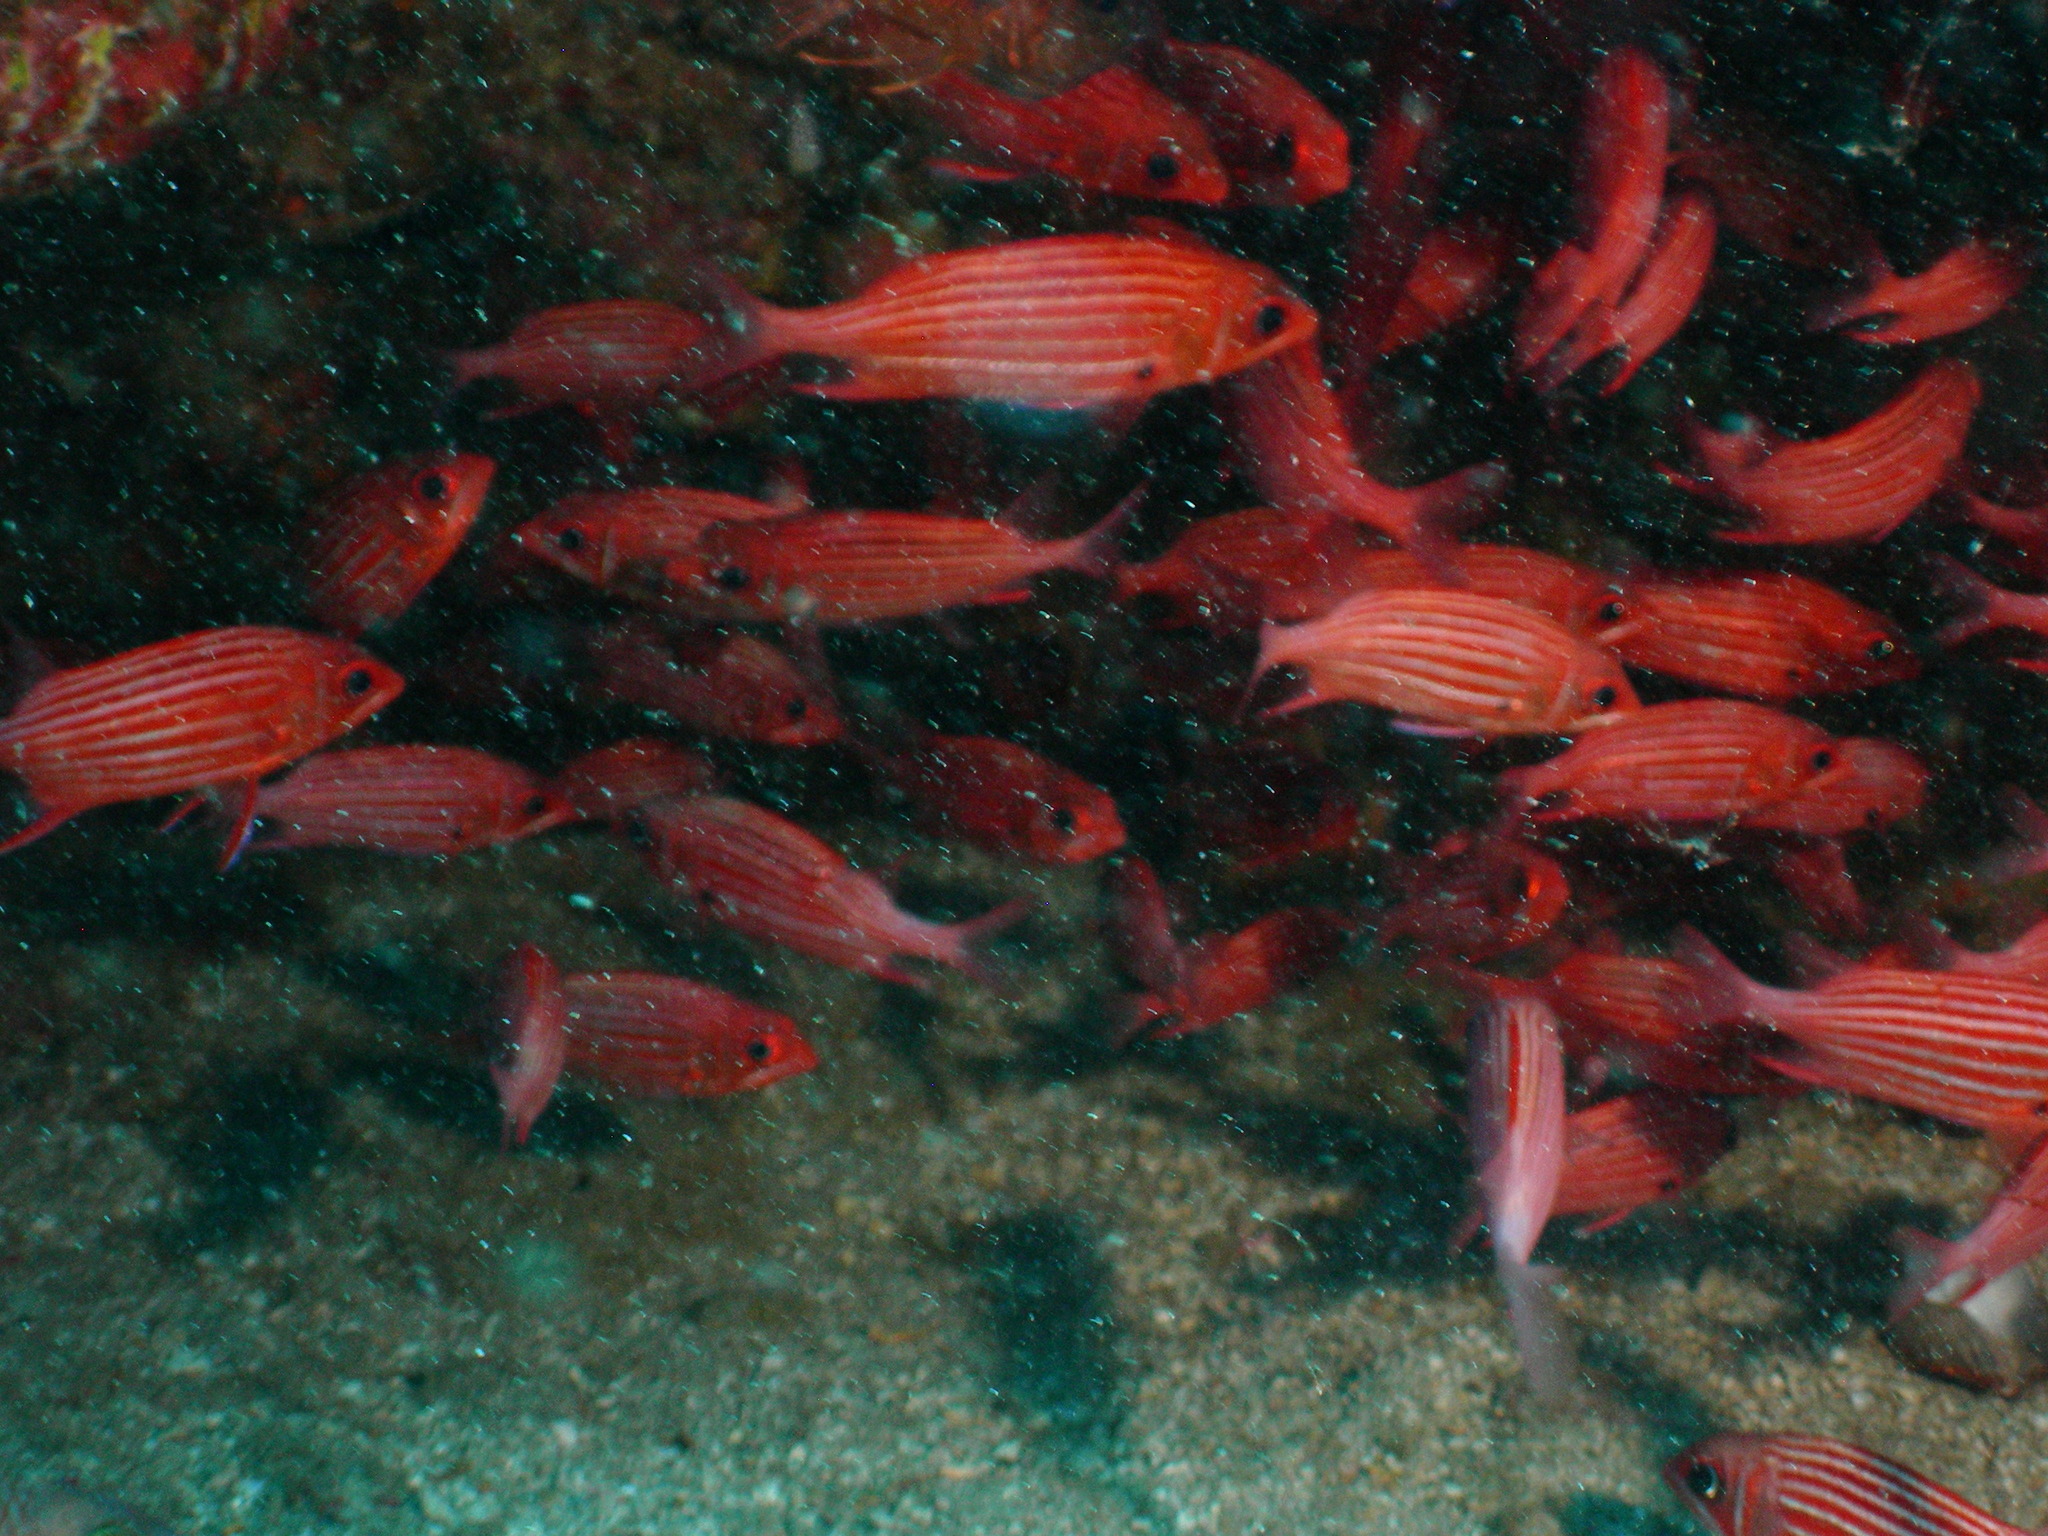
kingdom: Animalia
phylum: Chordata
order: Beryciformes
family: Holocentridae
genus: Sargocentron
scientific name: Sargocentron diadema
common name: Crown squirrelfish
